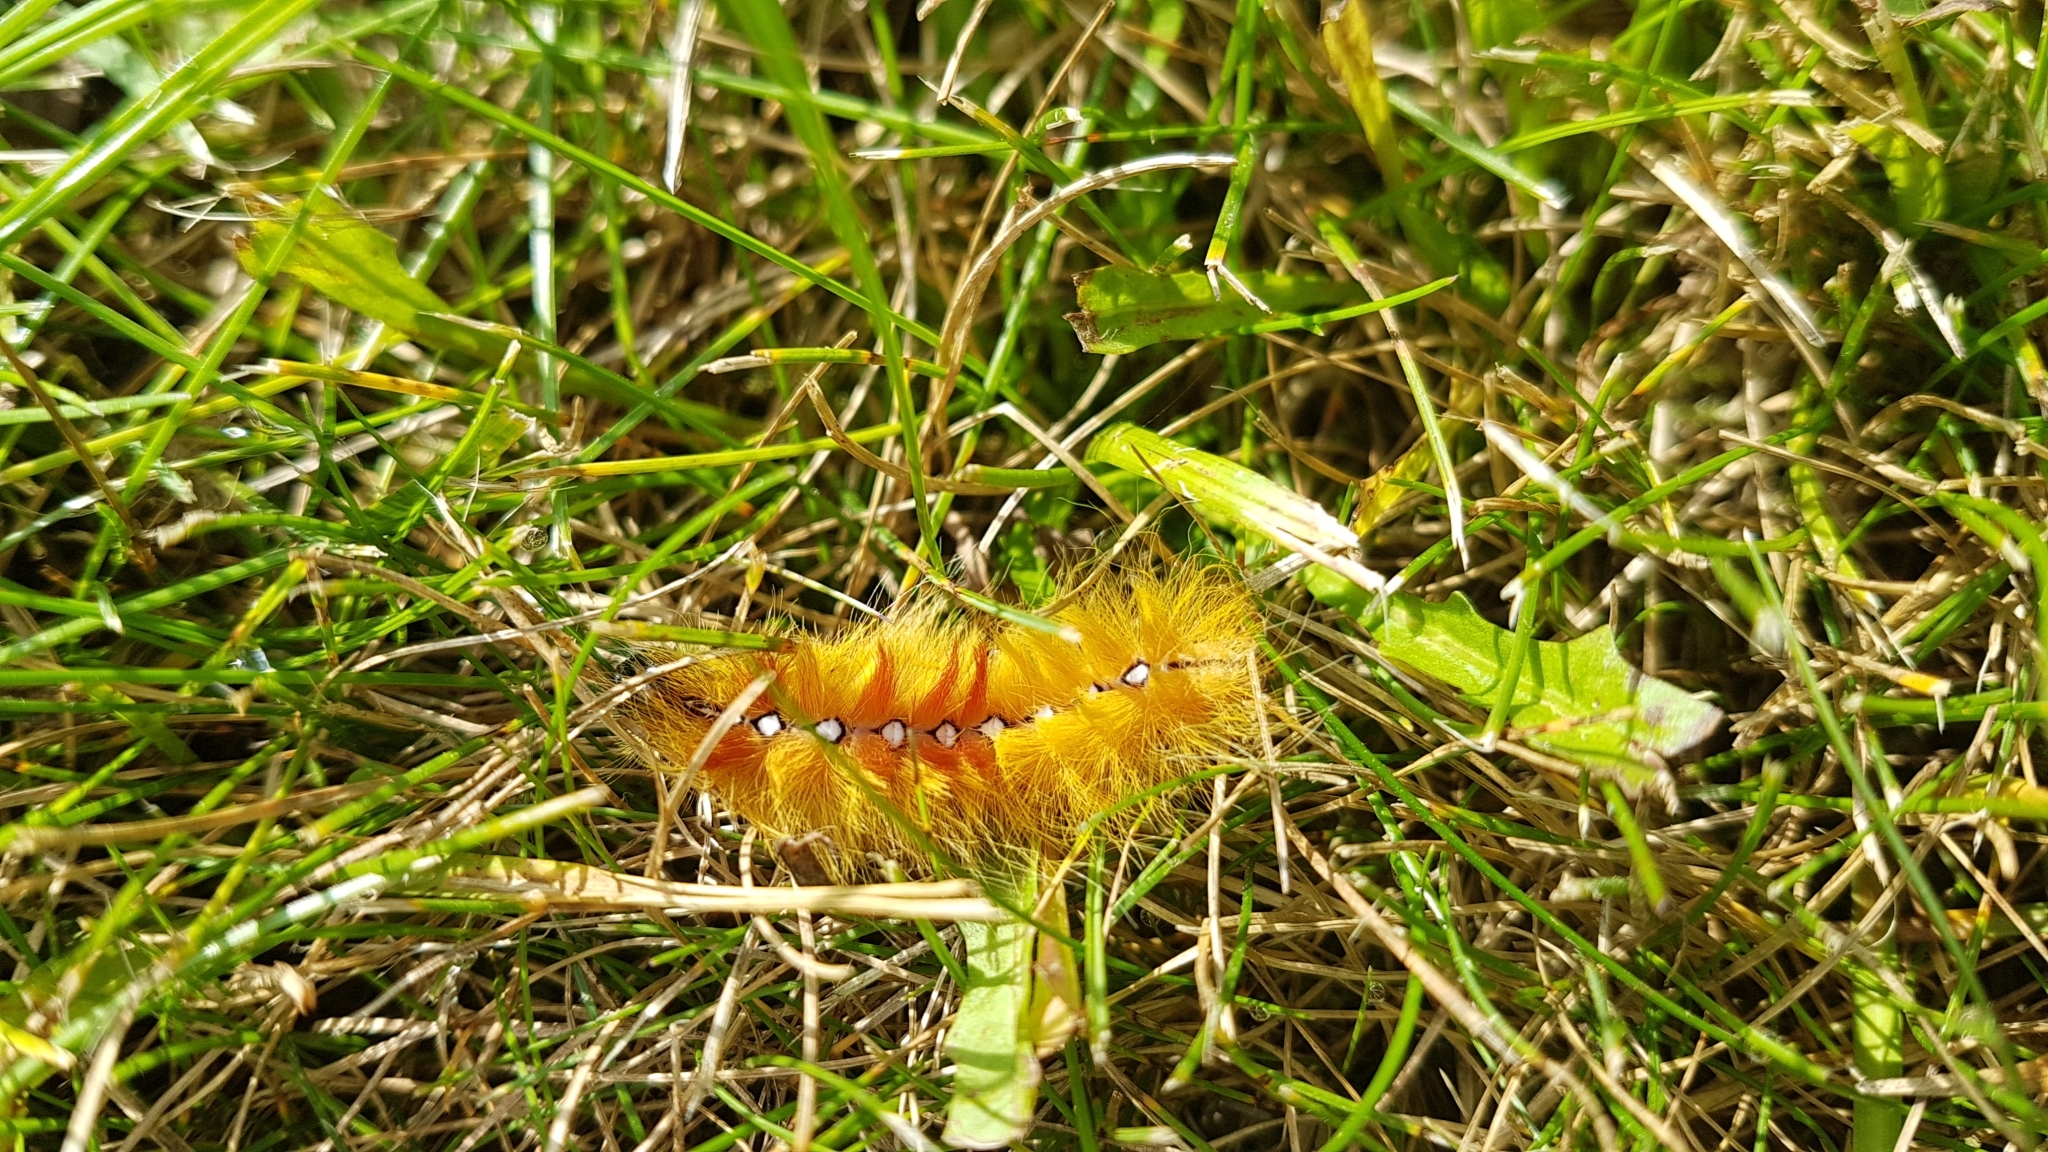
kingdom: Animalia
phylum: Arthropoda
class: Insecta
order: Lepidoptera
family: Noctuidae
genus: Acronicta
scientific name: Acronicta aceris
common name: Sycamore
